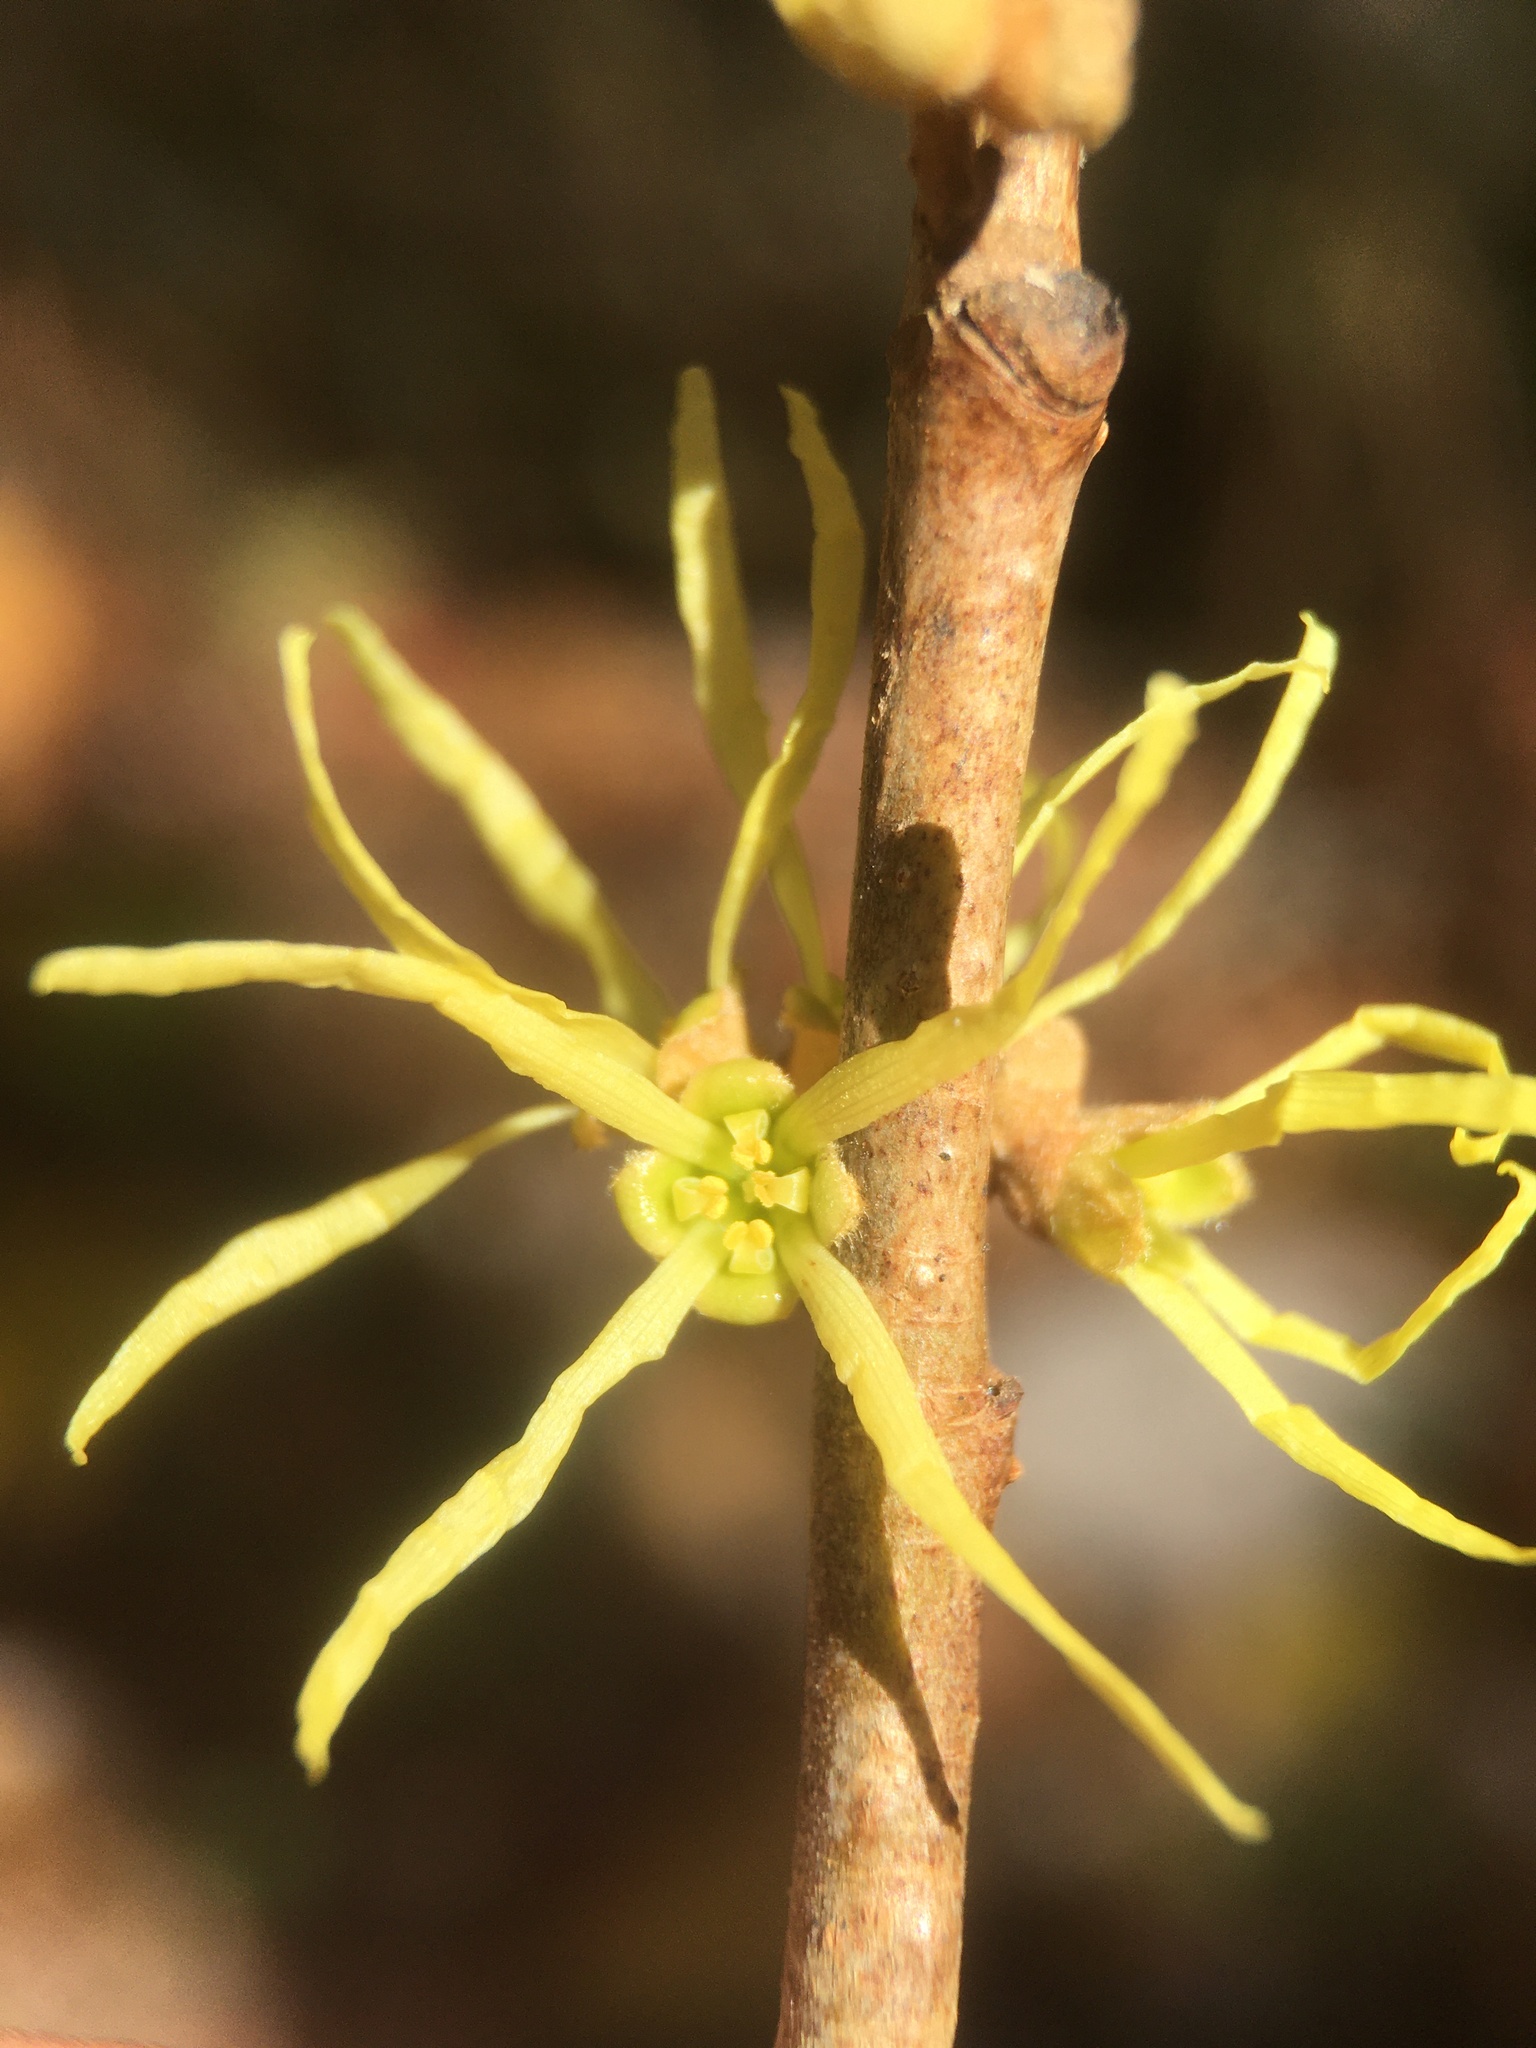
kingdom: Plantae
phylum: Tracheophyta
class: Magnoliopsida
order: Saxifragales
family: Hamamelidaceae
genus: Hamamelis
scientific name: Hamamelis virginiana
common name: Witch-hazel
